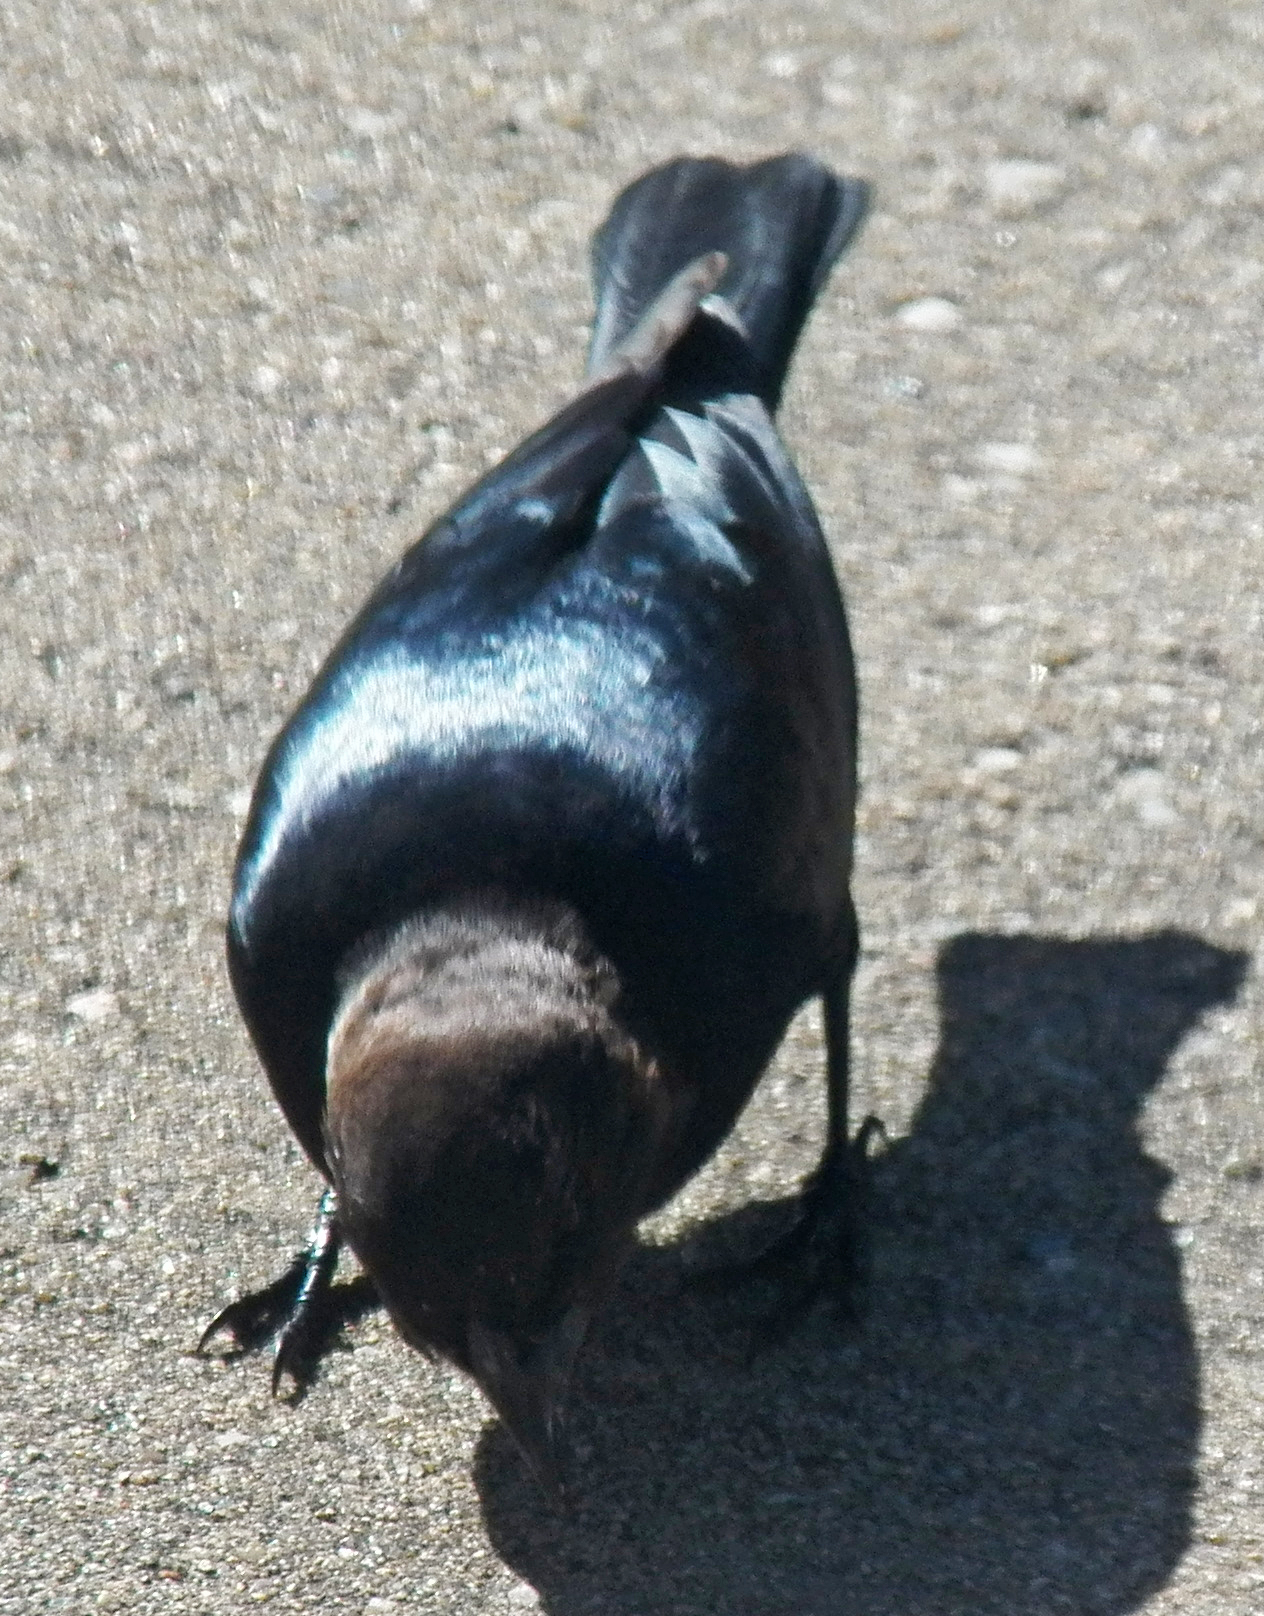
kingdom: Animalia
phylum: Chordata
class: Aves
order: Passeriformes
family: Icteridae
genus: Molothrus
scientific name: Molothrus ater
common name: Brown-headed cowbird
